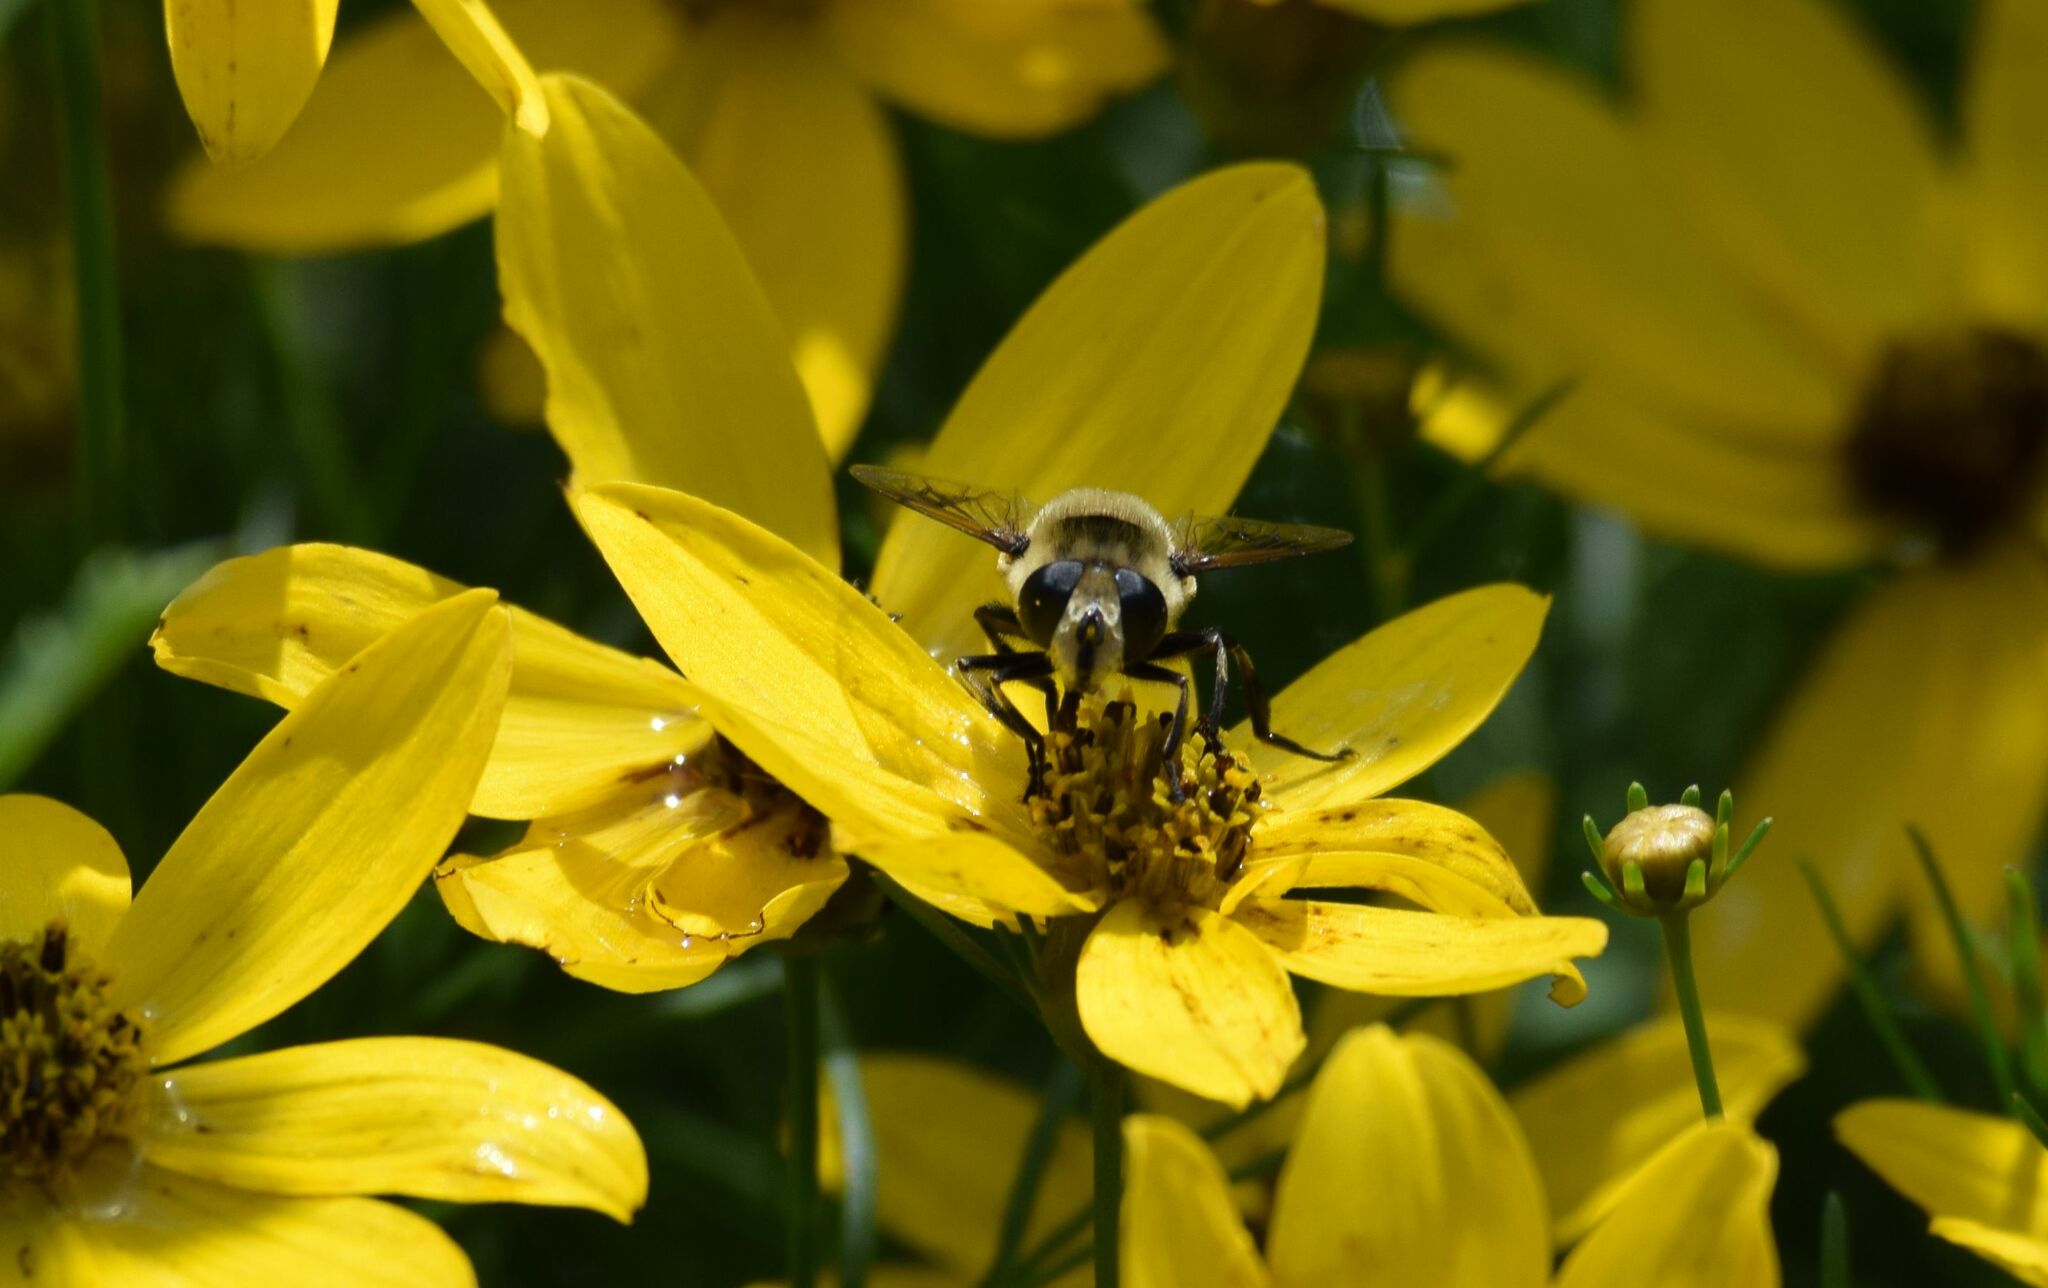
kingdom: Animalia
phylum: Arthropoda
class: Insecta
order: Diptera
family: Syrphidae
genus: Eristalis
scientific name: Eristalis anthophorina
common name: Orange-spotted drone fly
